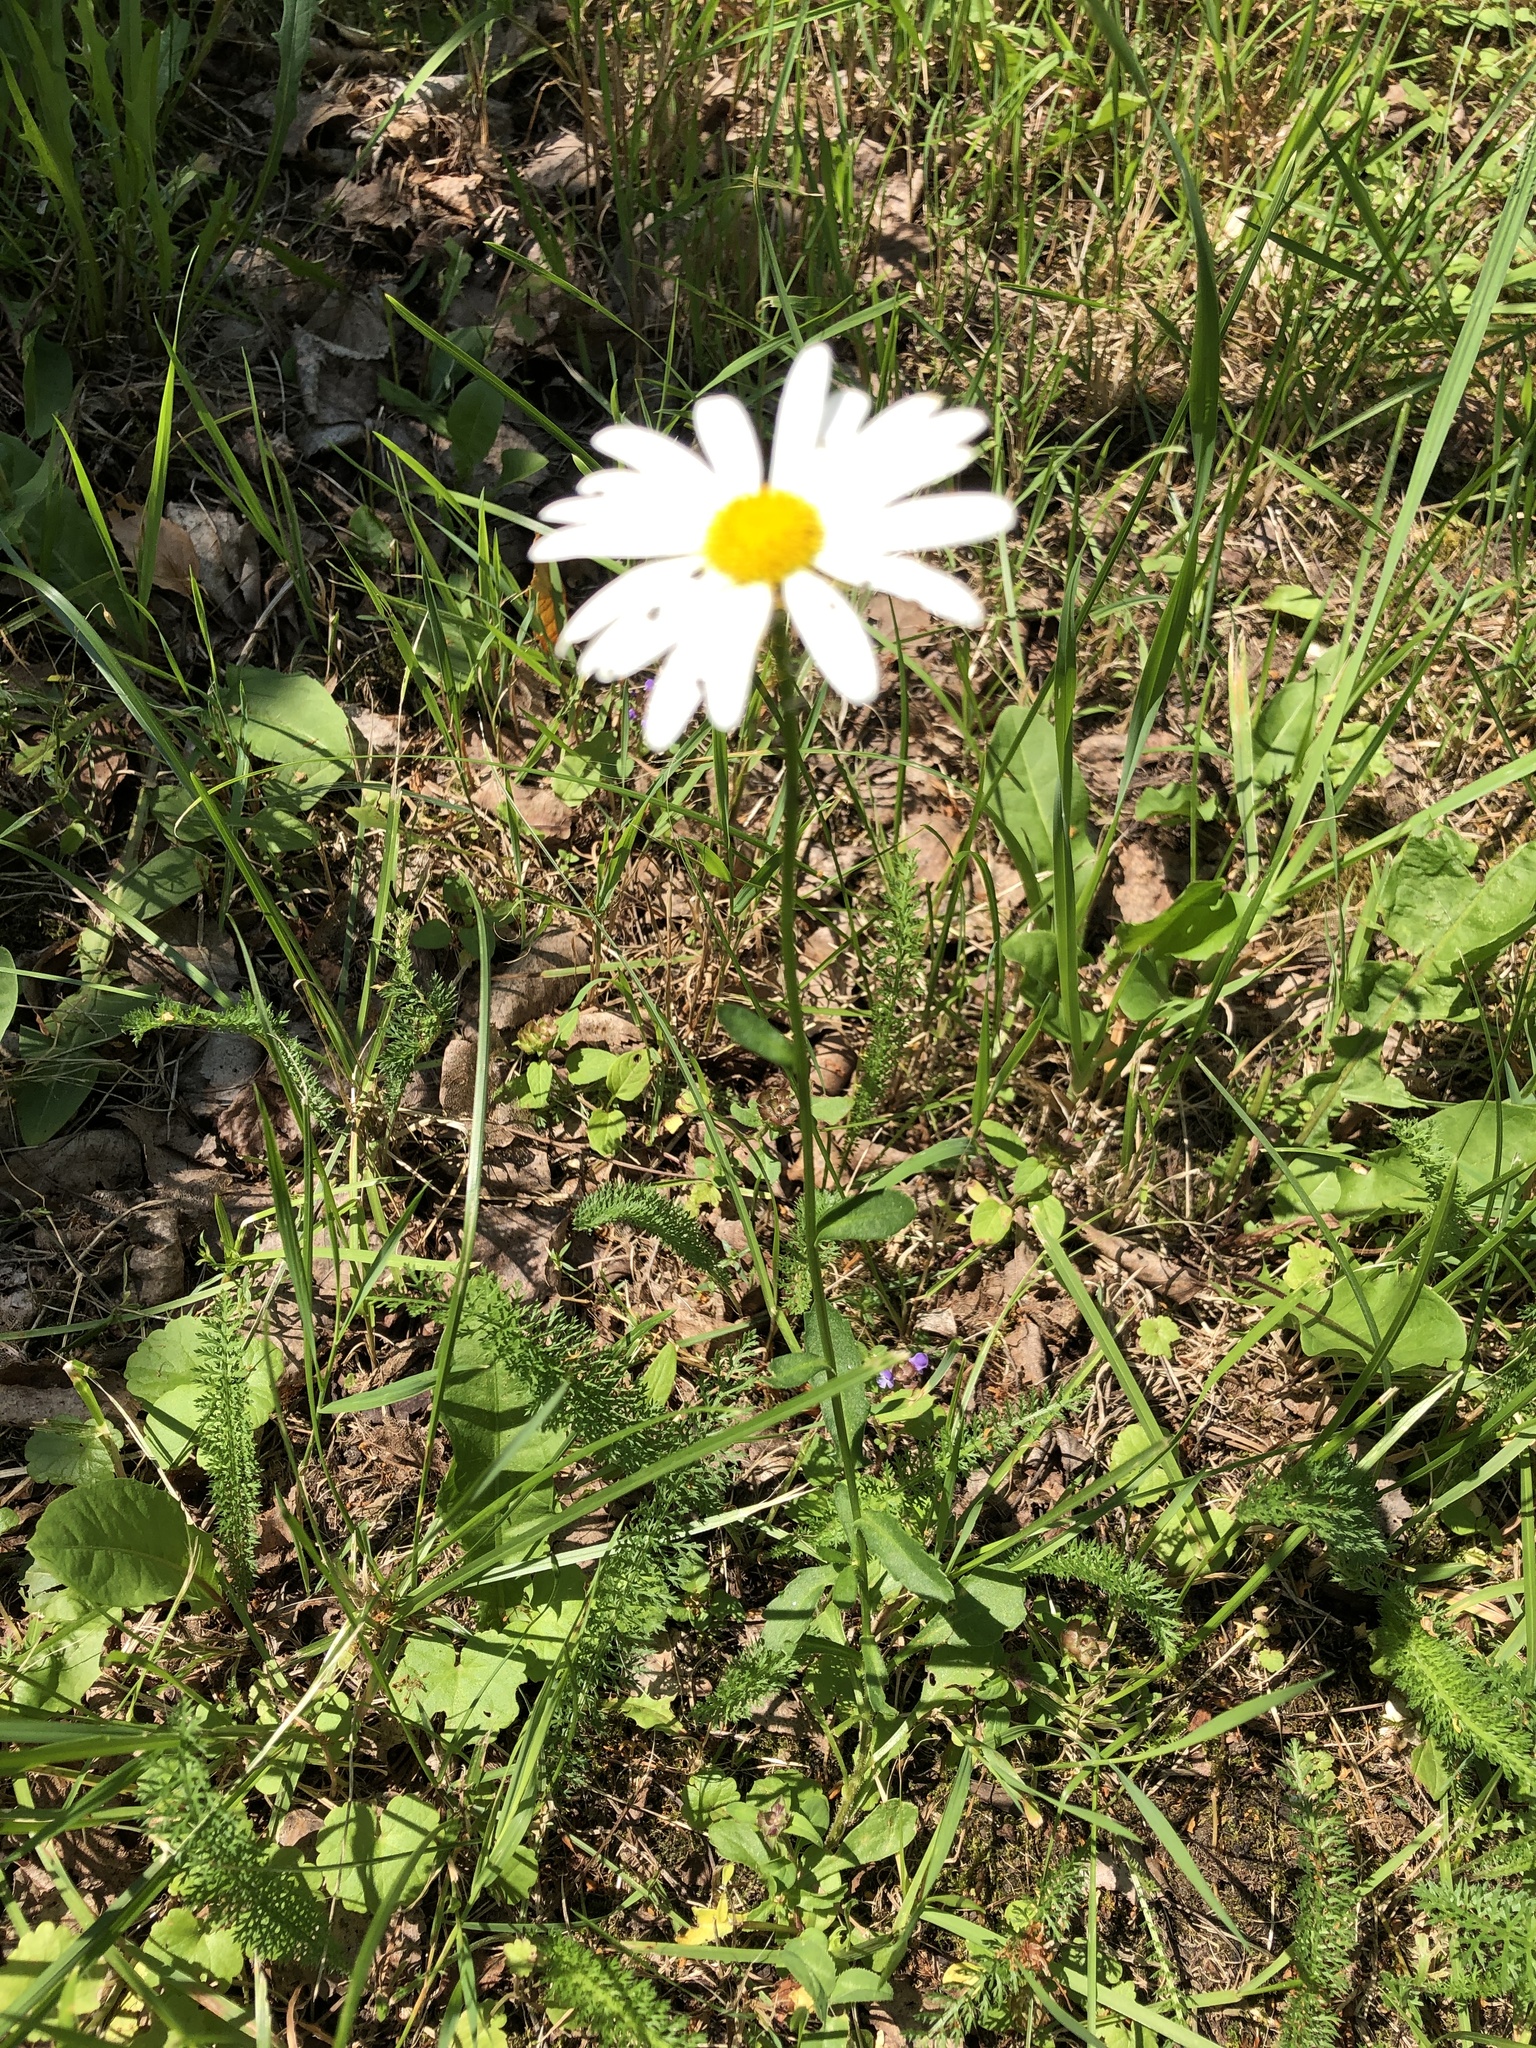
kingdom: Plantae
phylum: Tracheophyta
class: Magnoliopsida
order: Asterales
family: Asteraceae
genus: Leucanthemum
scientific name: Leucanthemum vulgare
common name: Oxeye daisy
